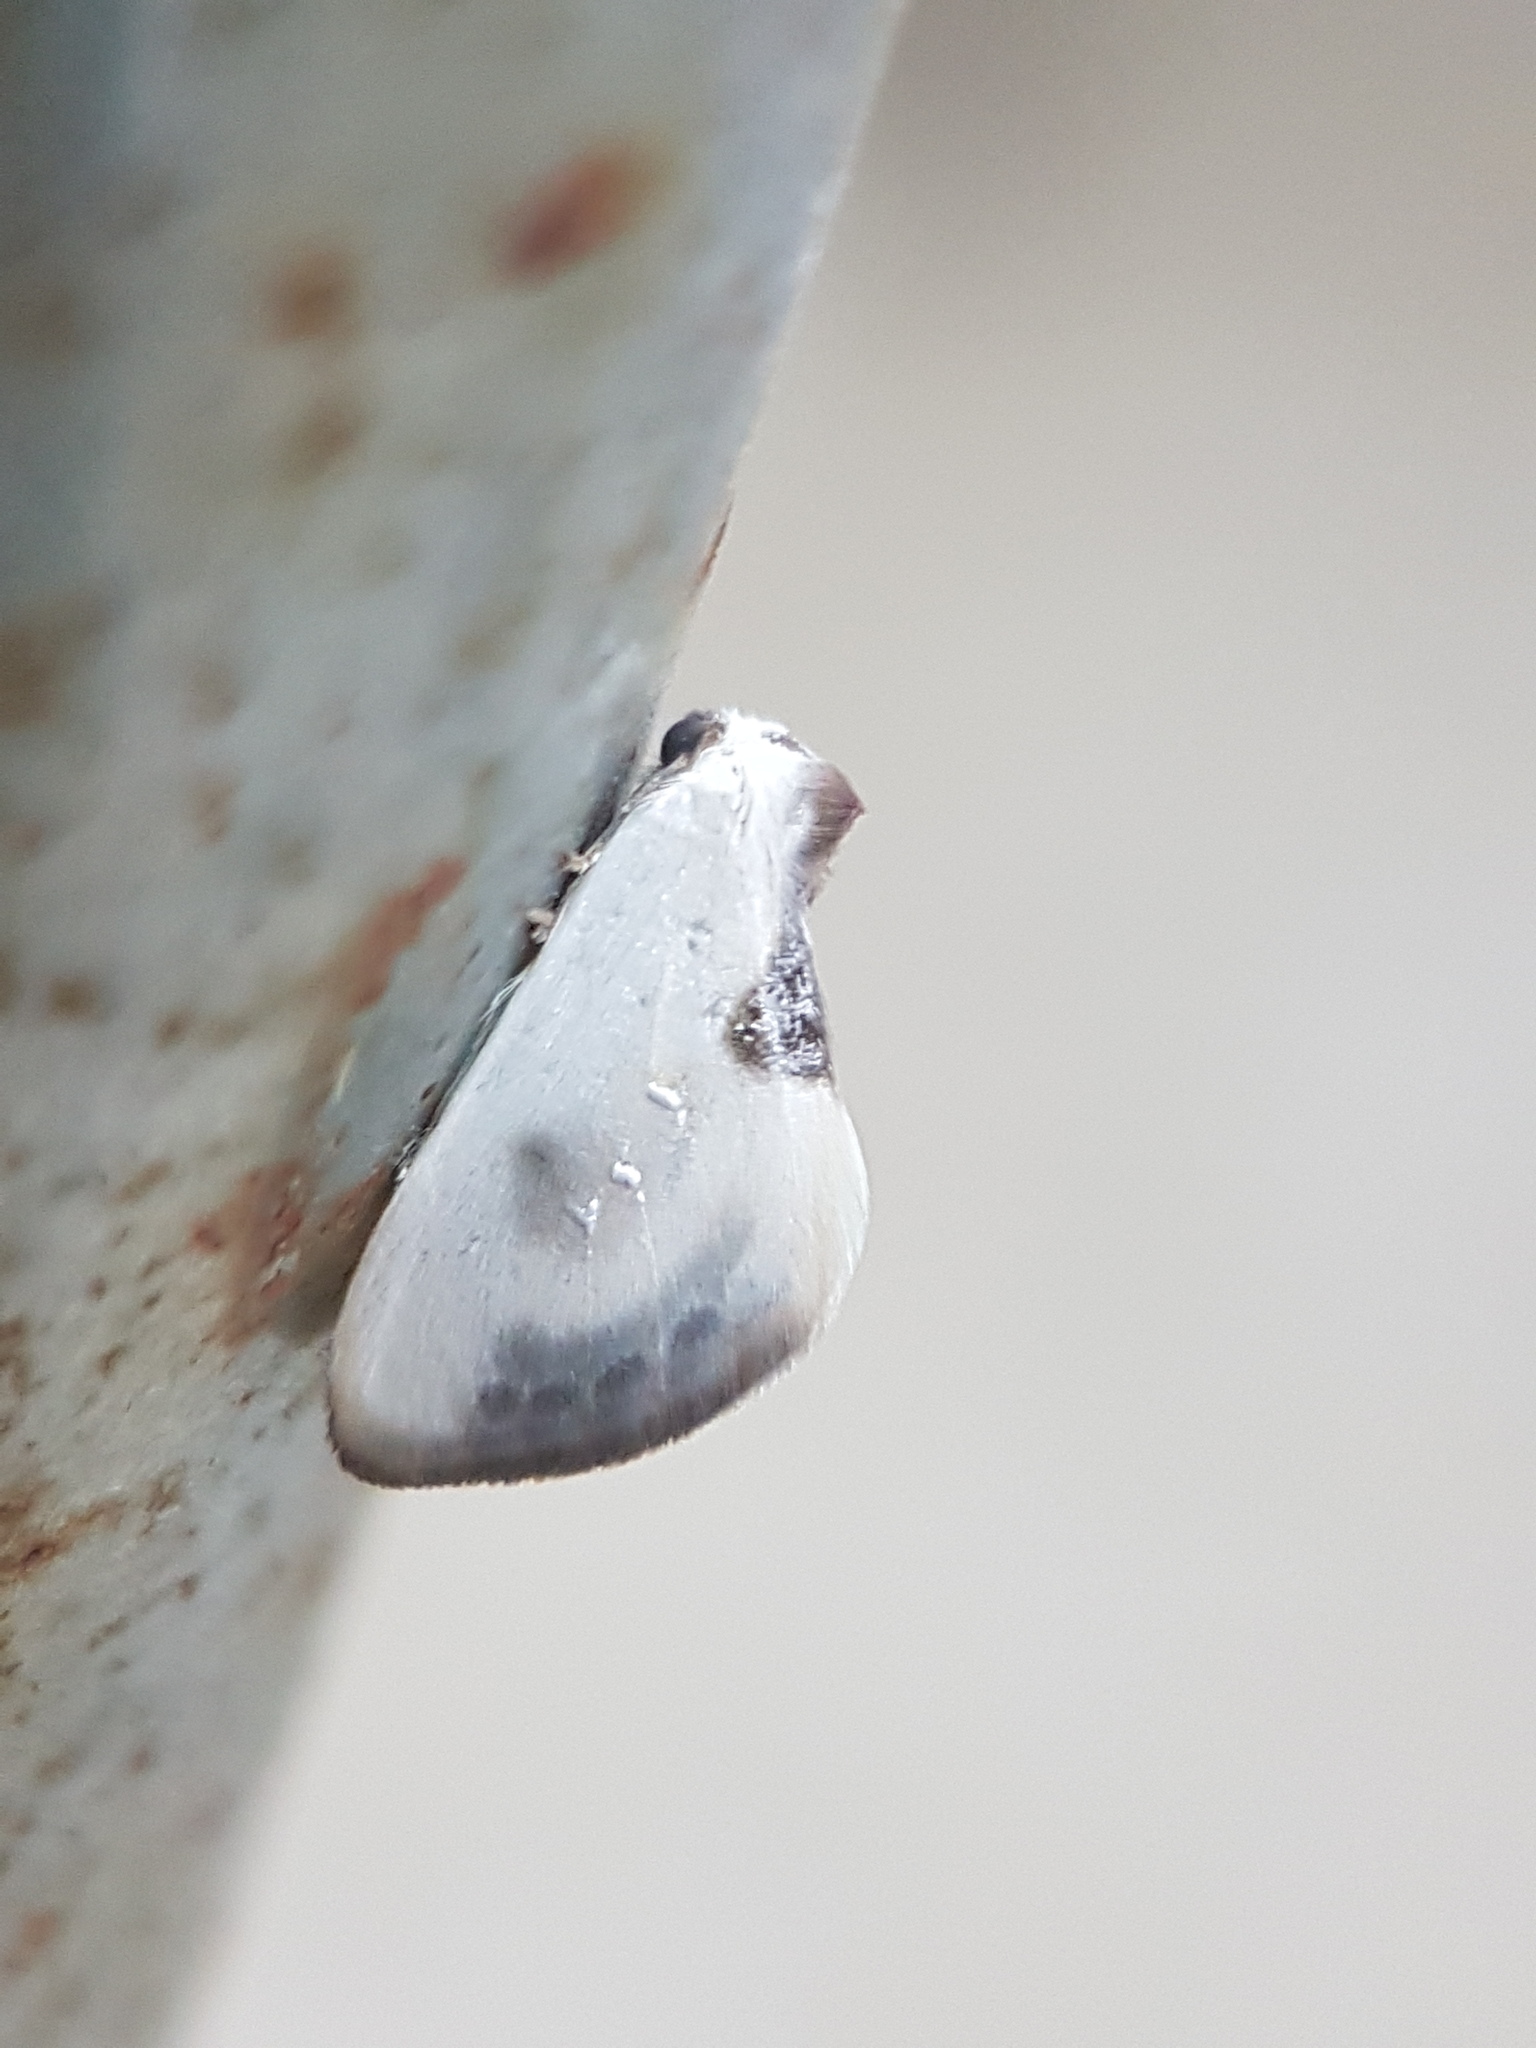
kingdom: Animalia
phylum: Arthropoda
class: Insecta
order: Lepidoptera
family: Drepanidae
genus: Cilix
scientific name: Cilix asiatica
